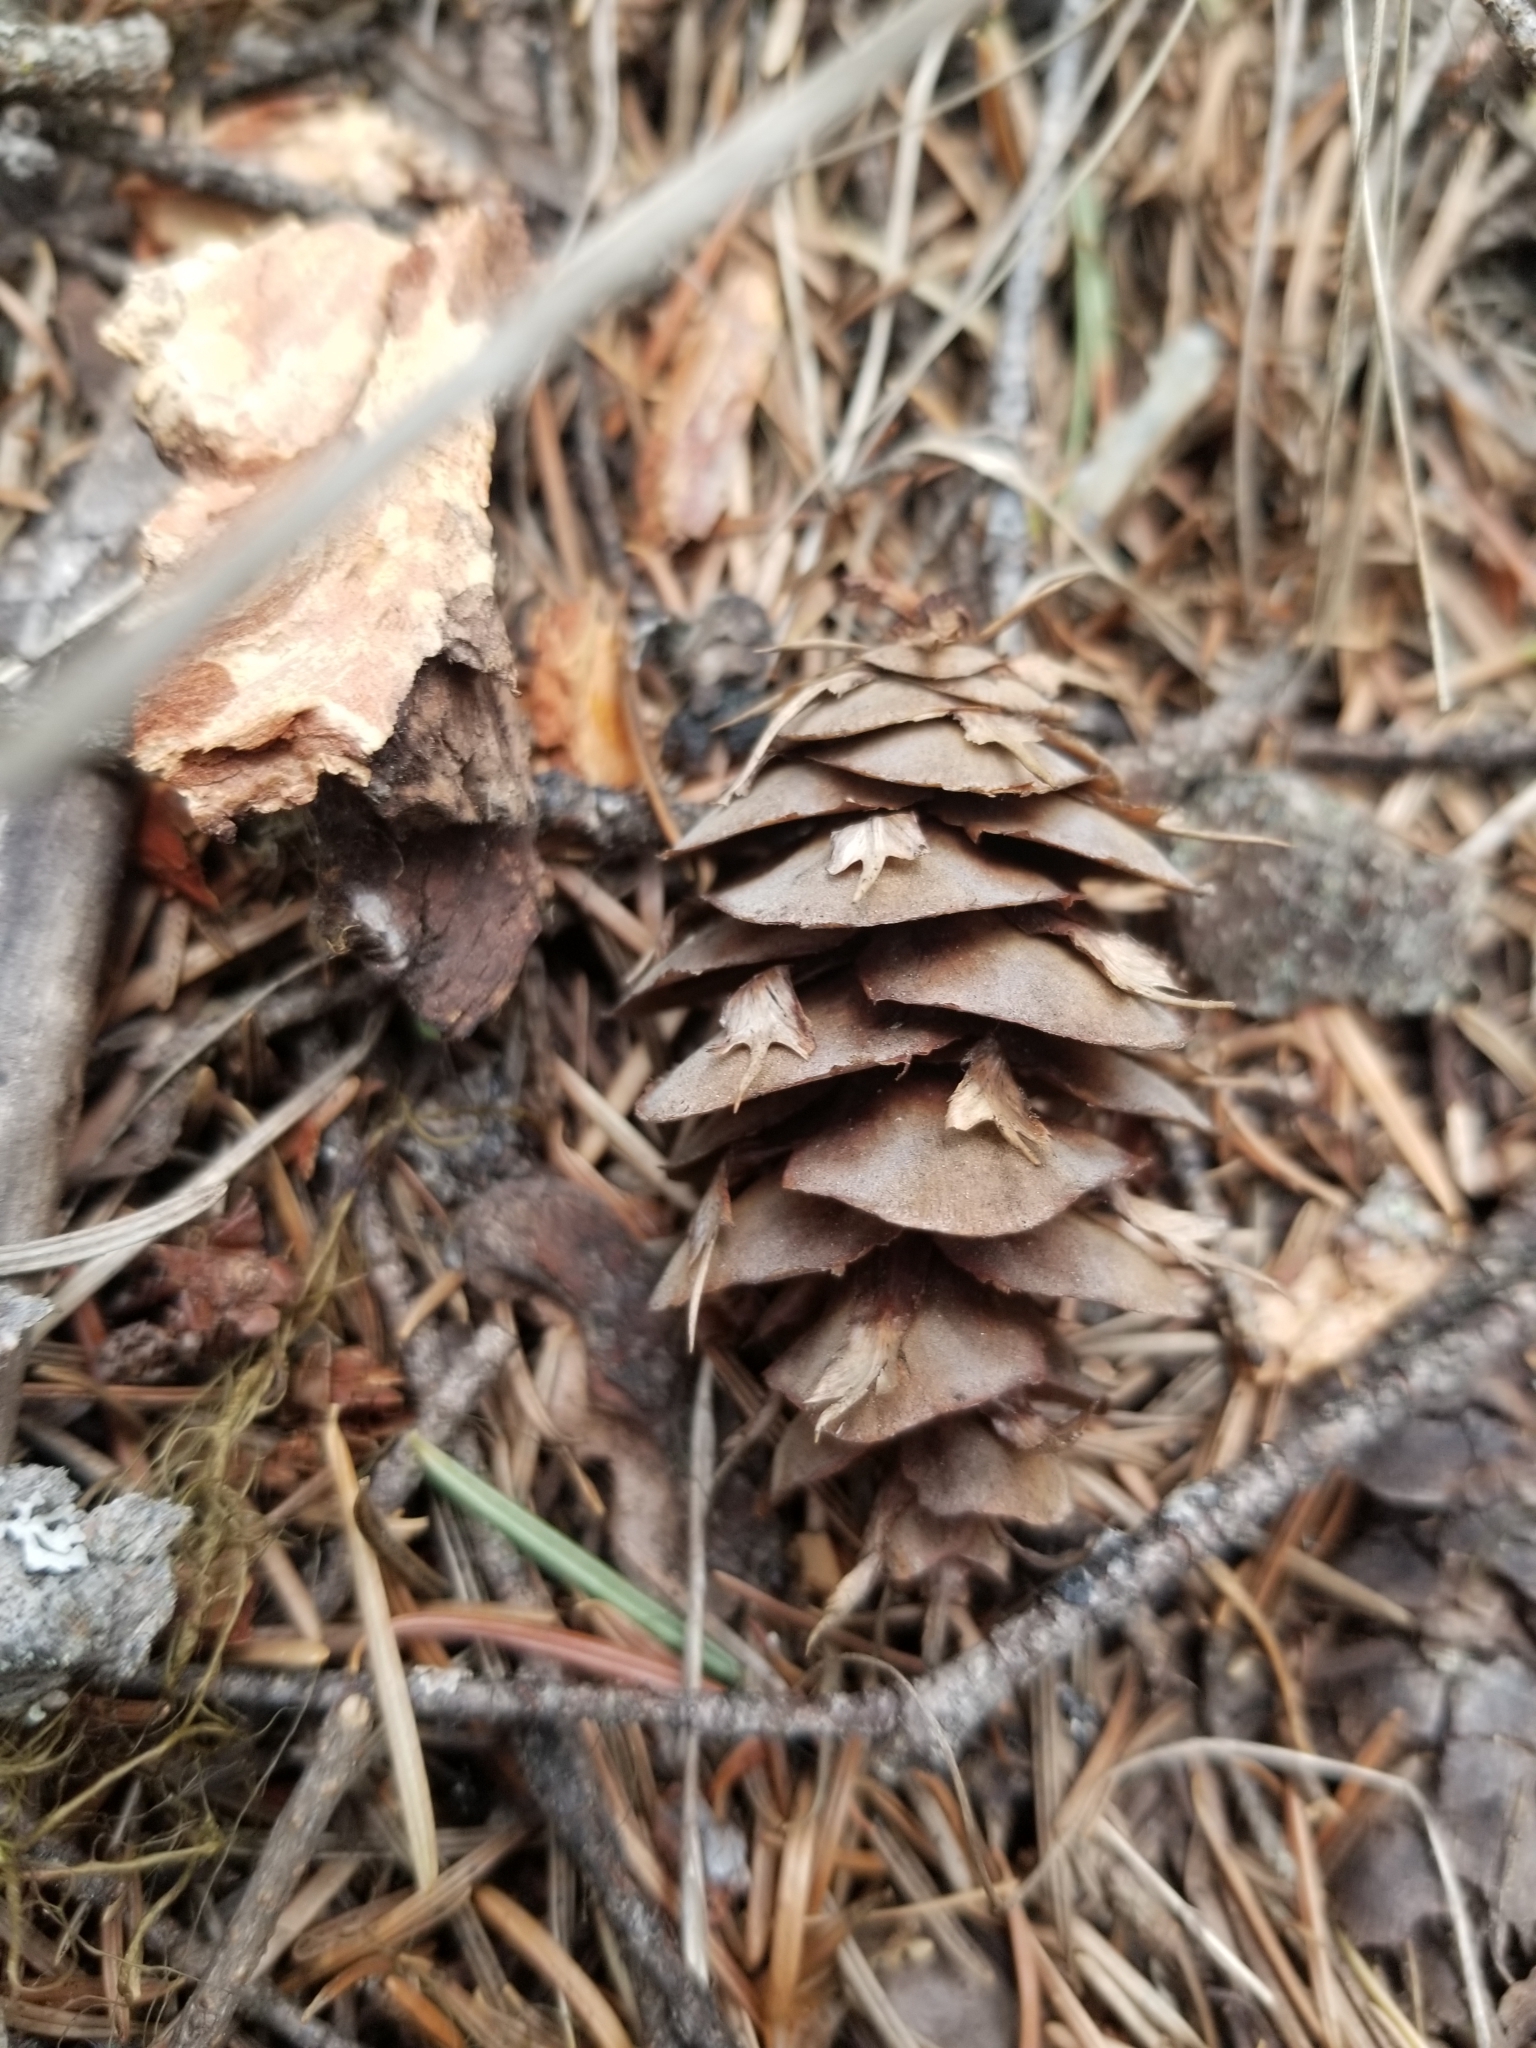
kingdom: Plantae
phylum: Tracheophyta
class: Pinopsida
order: Pinales
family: Pinaceae
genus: Pseudotsuga
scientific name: Pseudotsuga menziesii
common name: Douglas fir
